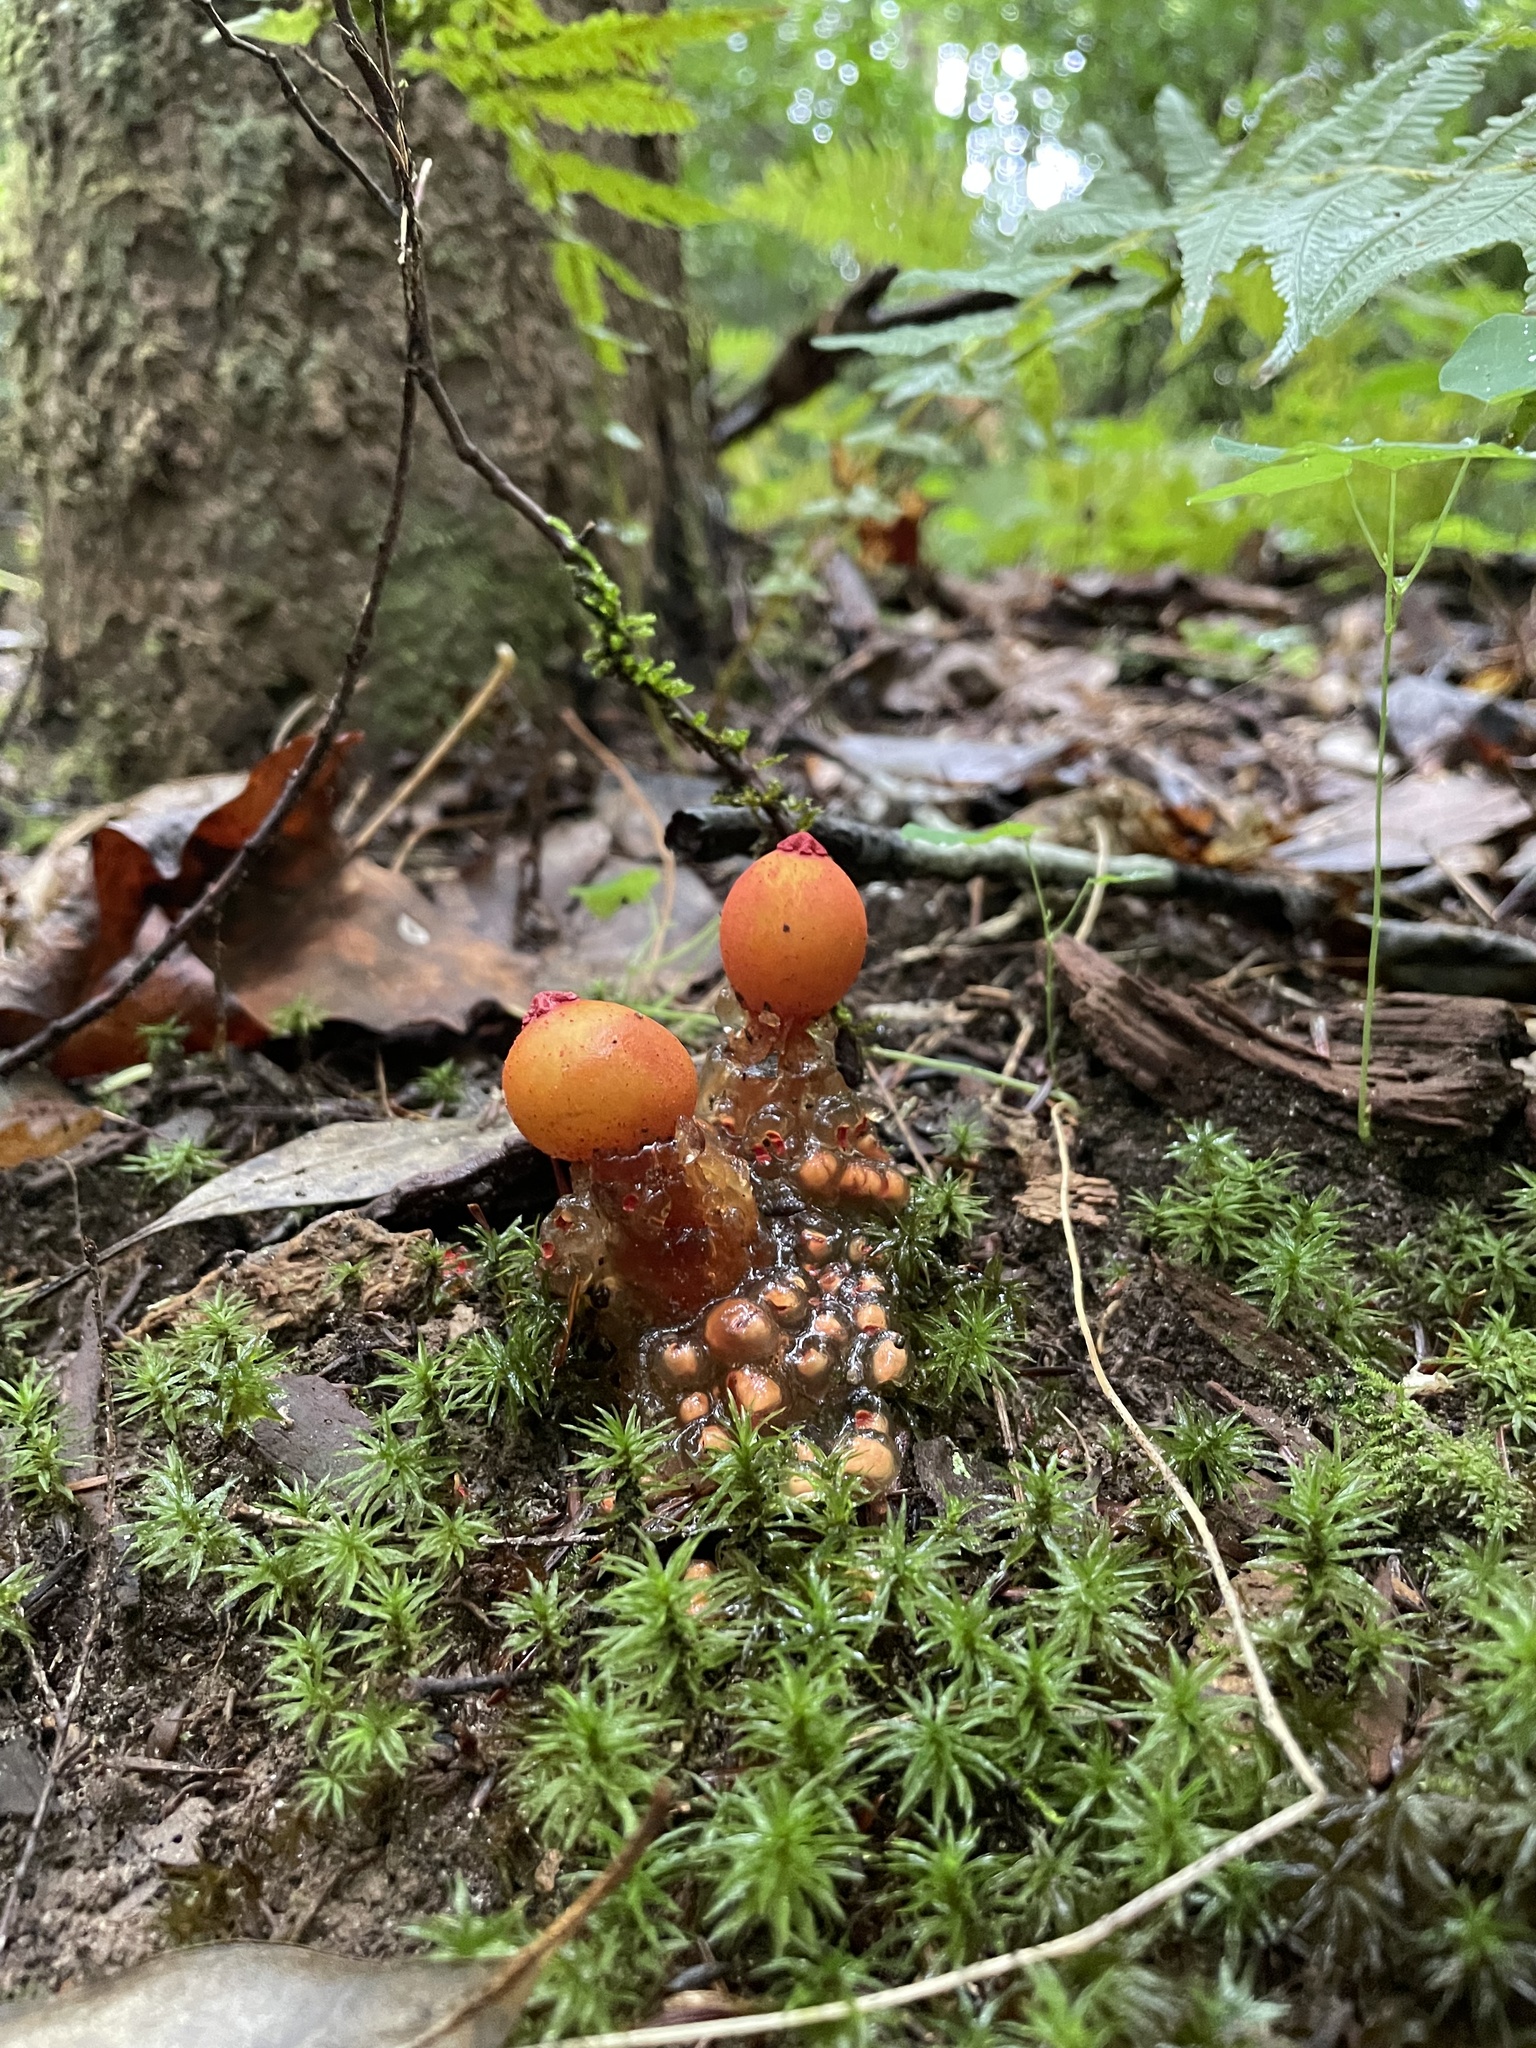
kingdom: Fungi
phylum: Basidiomycota
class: Agaricomycetes
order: Boletales
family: Calostomataceae
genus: Calostoma
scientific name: Calostoma cinnabarinum
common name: Stalked puffball-in-aspic
